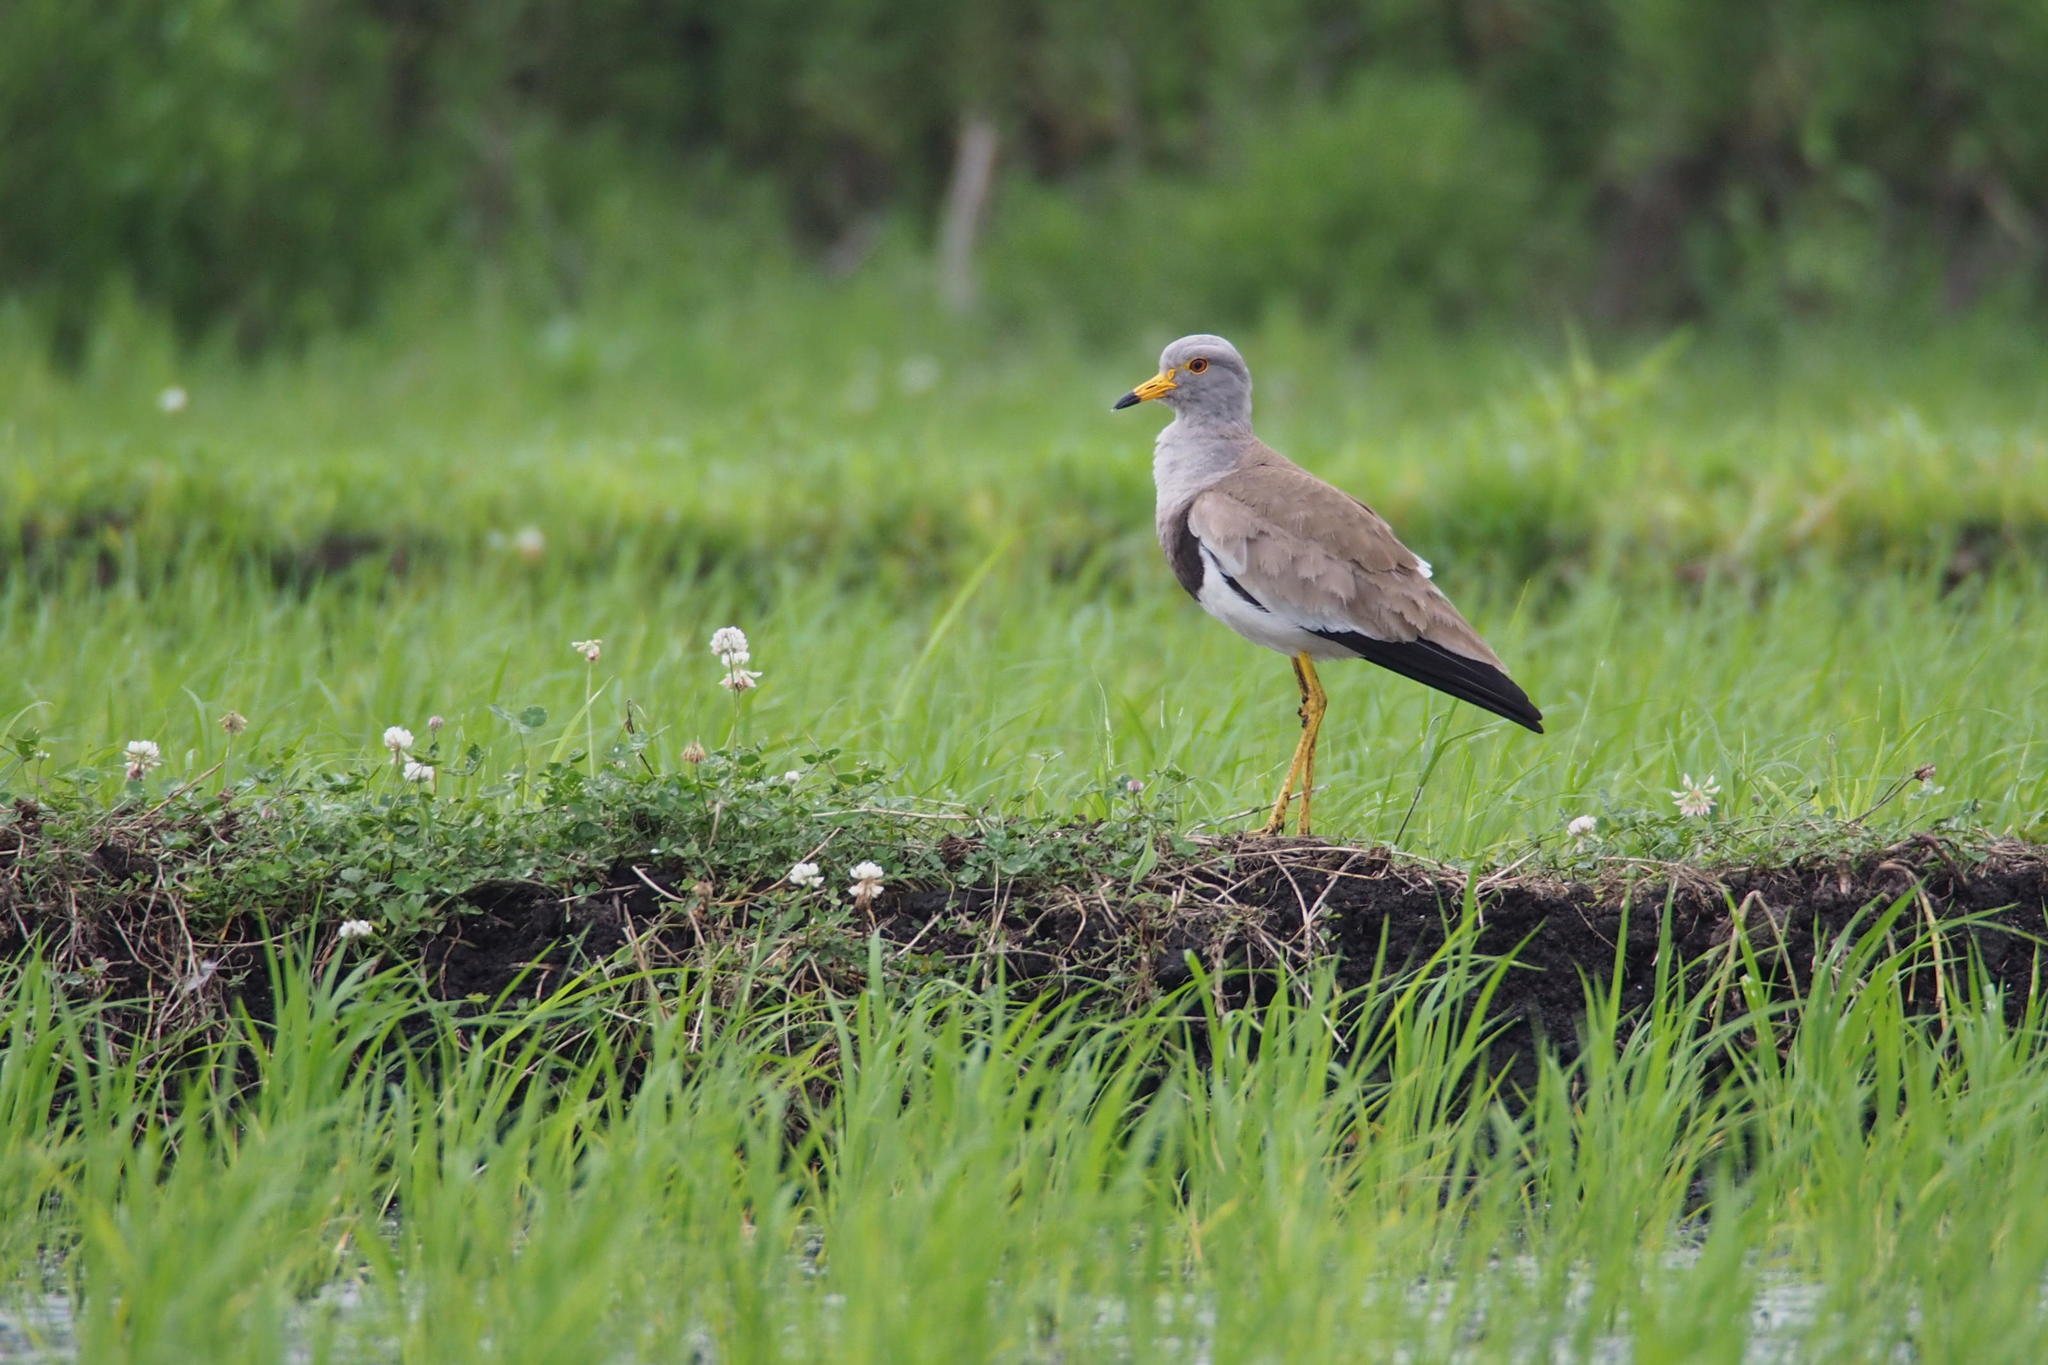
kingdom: Animalia
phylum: Chordata
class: Aves
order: Charadriiformes
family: Charadriidae
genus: Vanellus
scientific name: Vanellus cinereus
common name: Grey-headed lapwing
